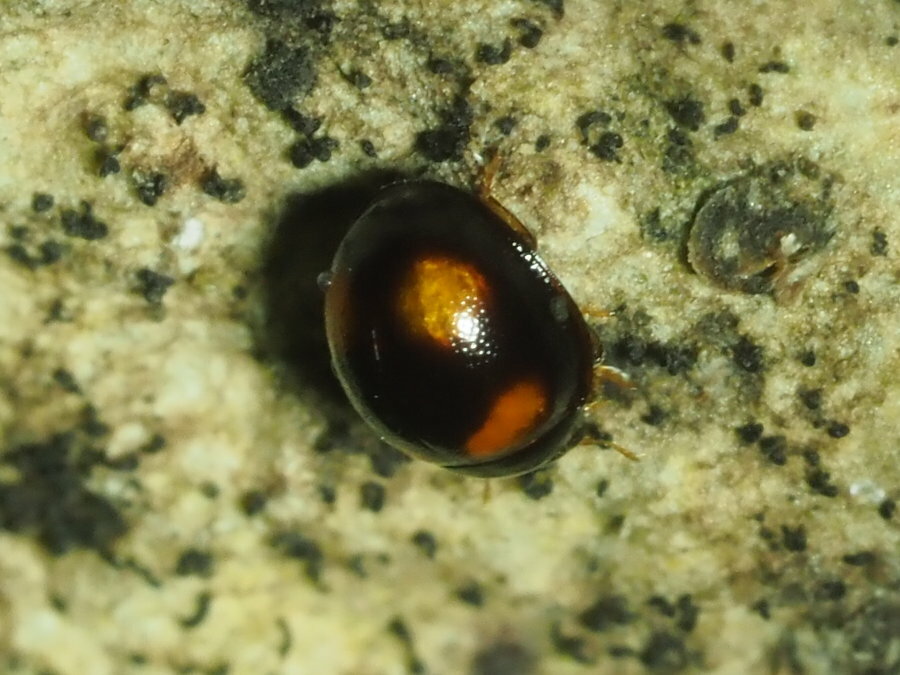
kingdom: Animalia
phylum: Arthropoda
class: Insecta
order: Coleoptera
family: Tenebrionidae
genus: Stethotrypes
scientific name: Stethotrypes
